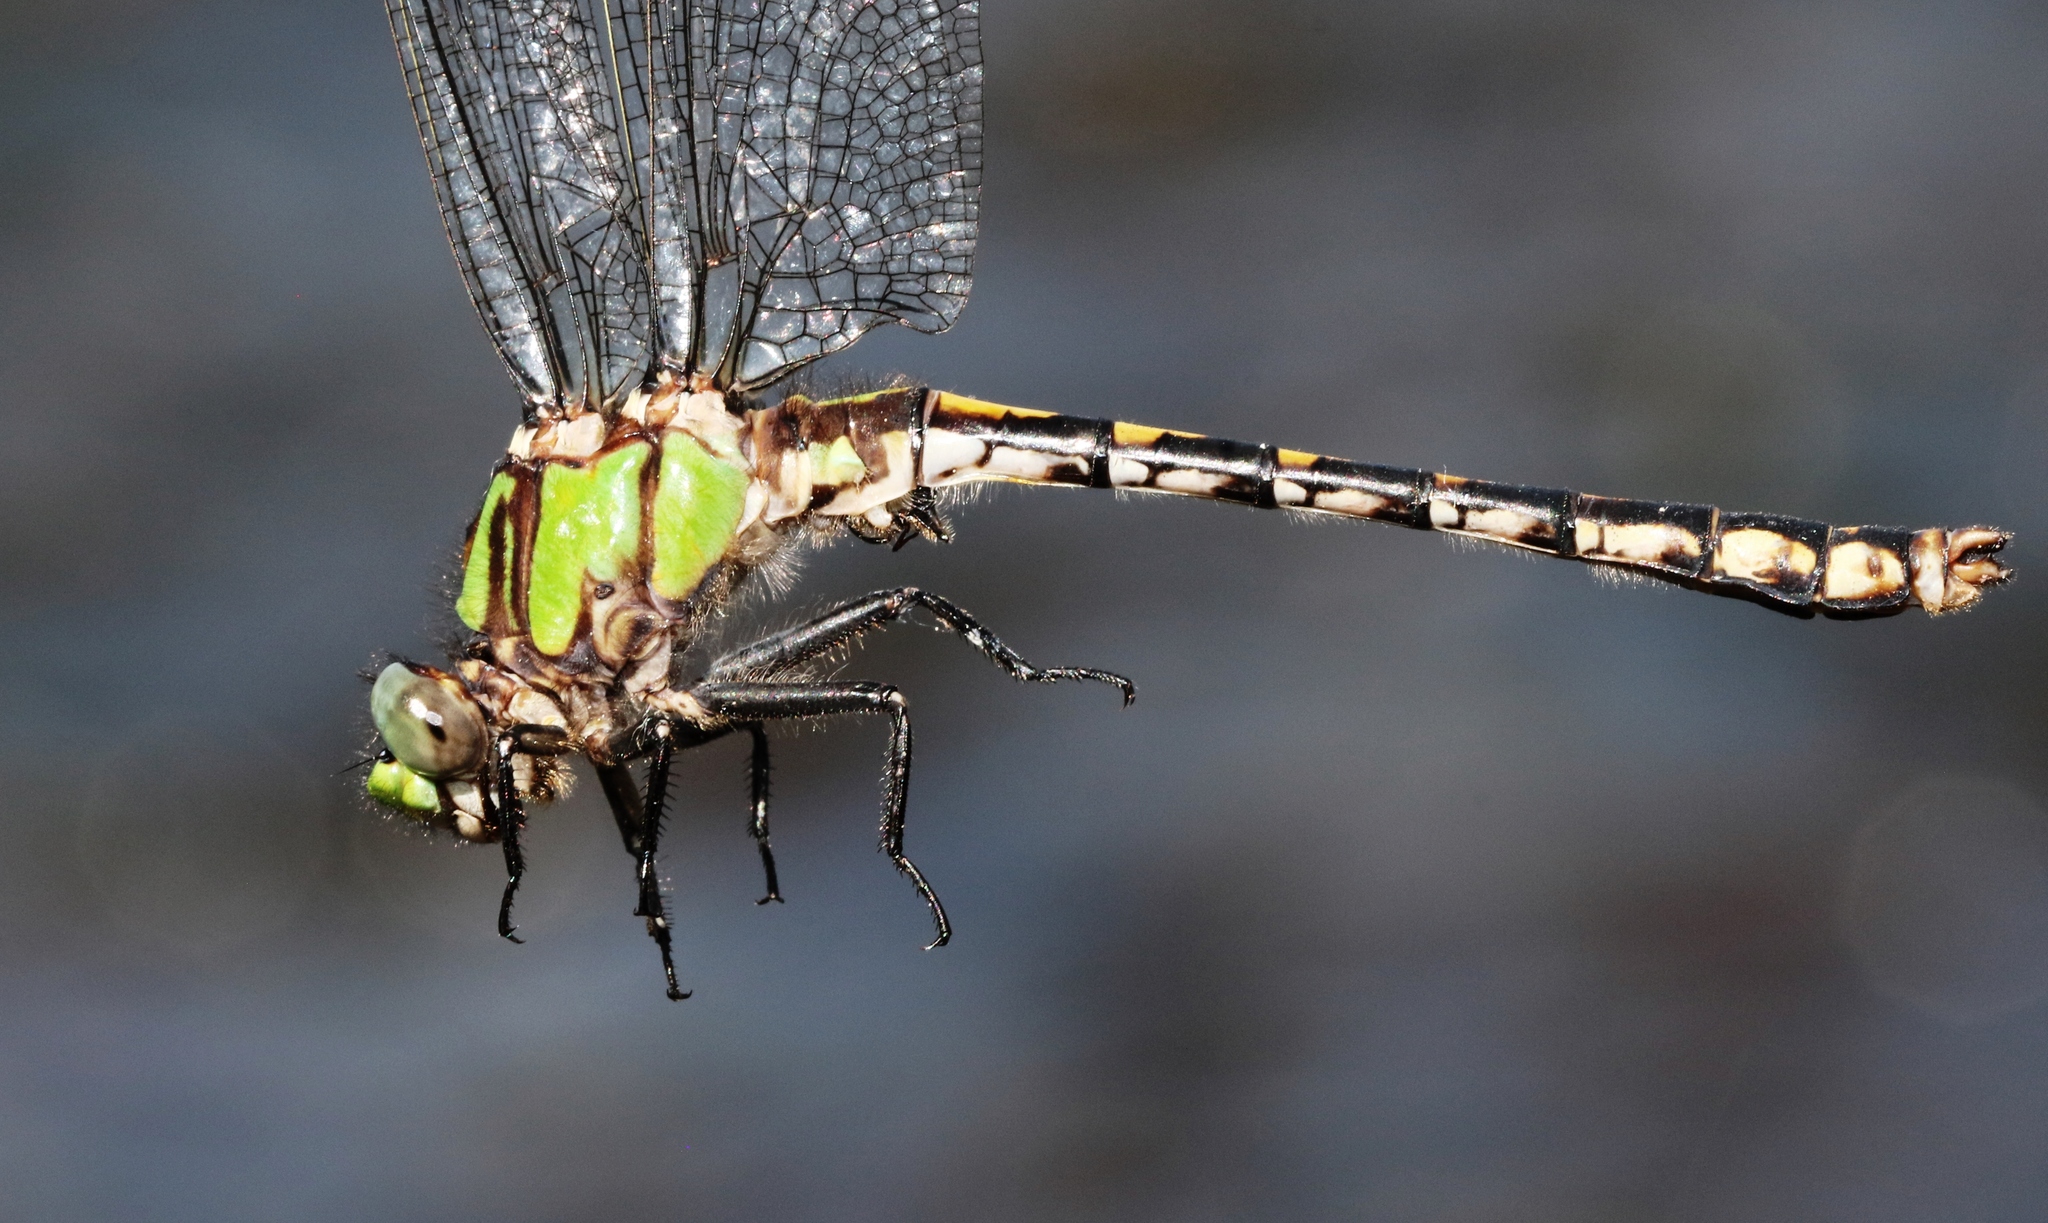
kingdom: Animalia
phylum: Arthropoda
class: Insecta
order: Odonata
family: Gomphidae
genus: Ophiogomphus
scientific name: Ophiogomphus carolus
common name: Riffle snaketail
